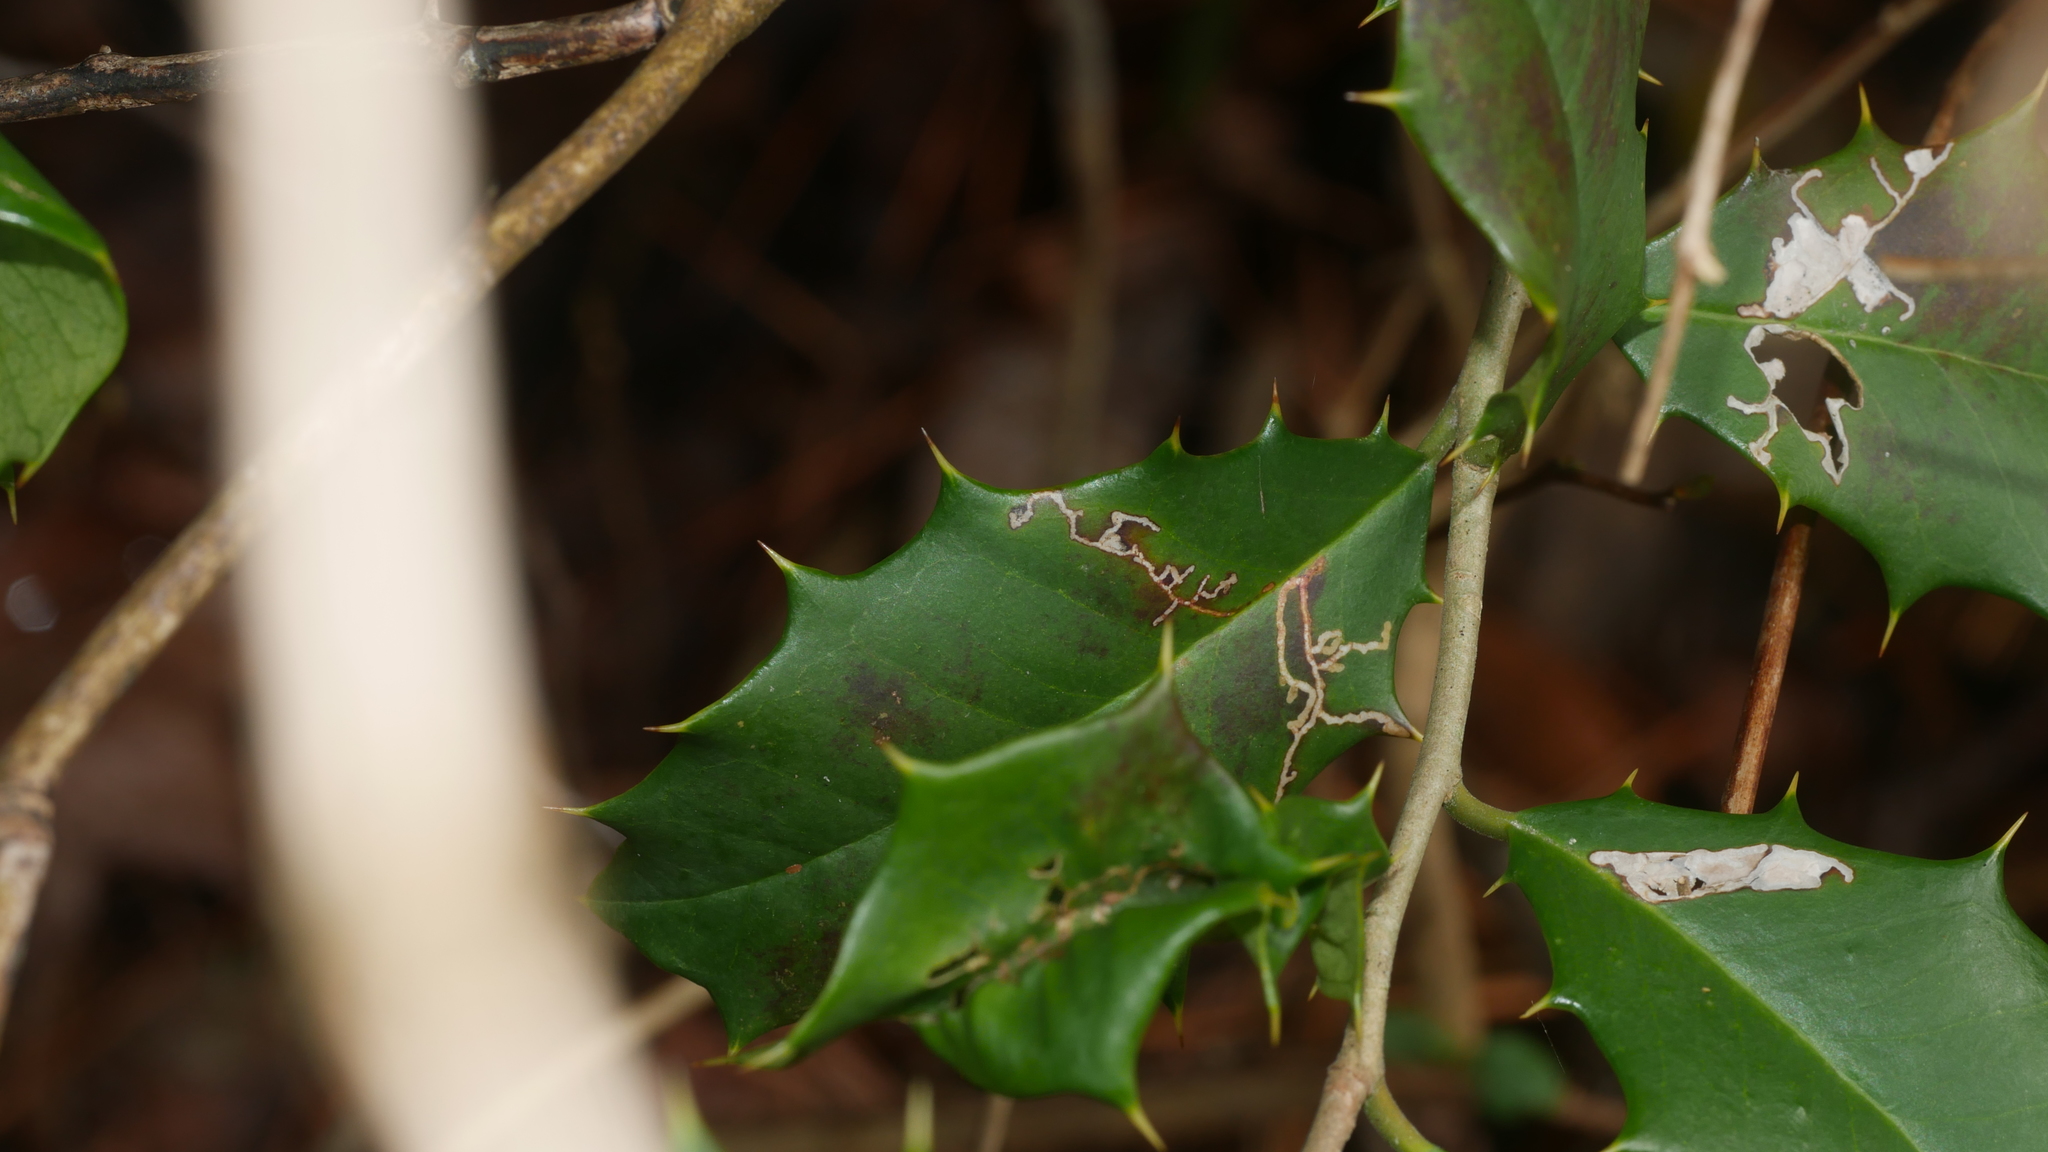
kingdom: Animalia
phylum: Arthropoda
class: Insecta
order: Lepidoptera
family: Tortricidae
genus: Rhopobota
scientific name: Rhopobota
